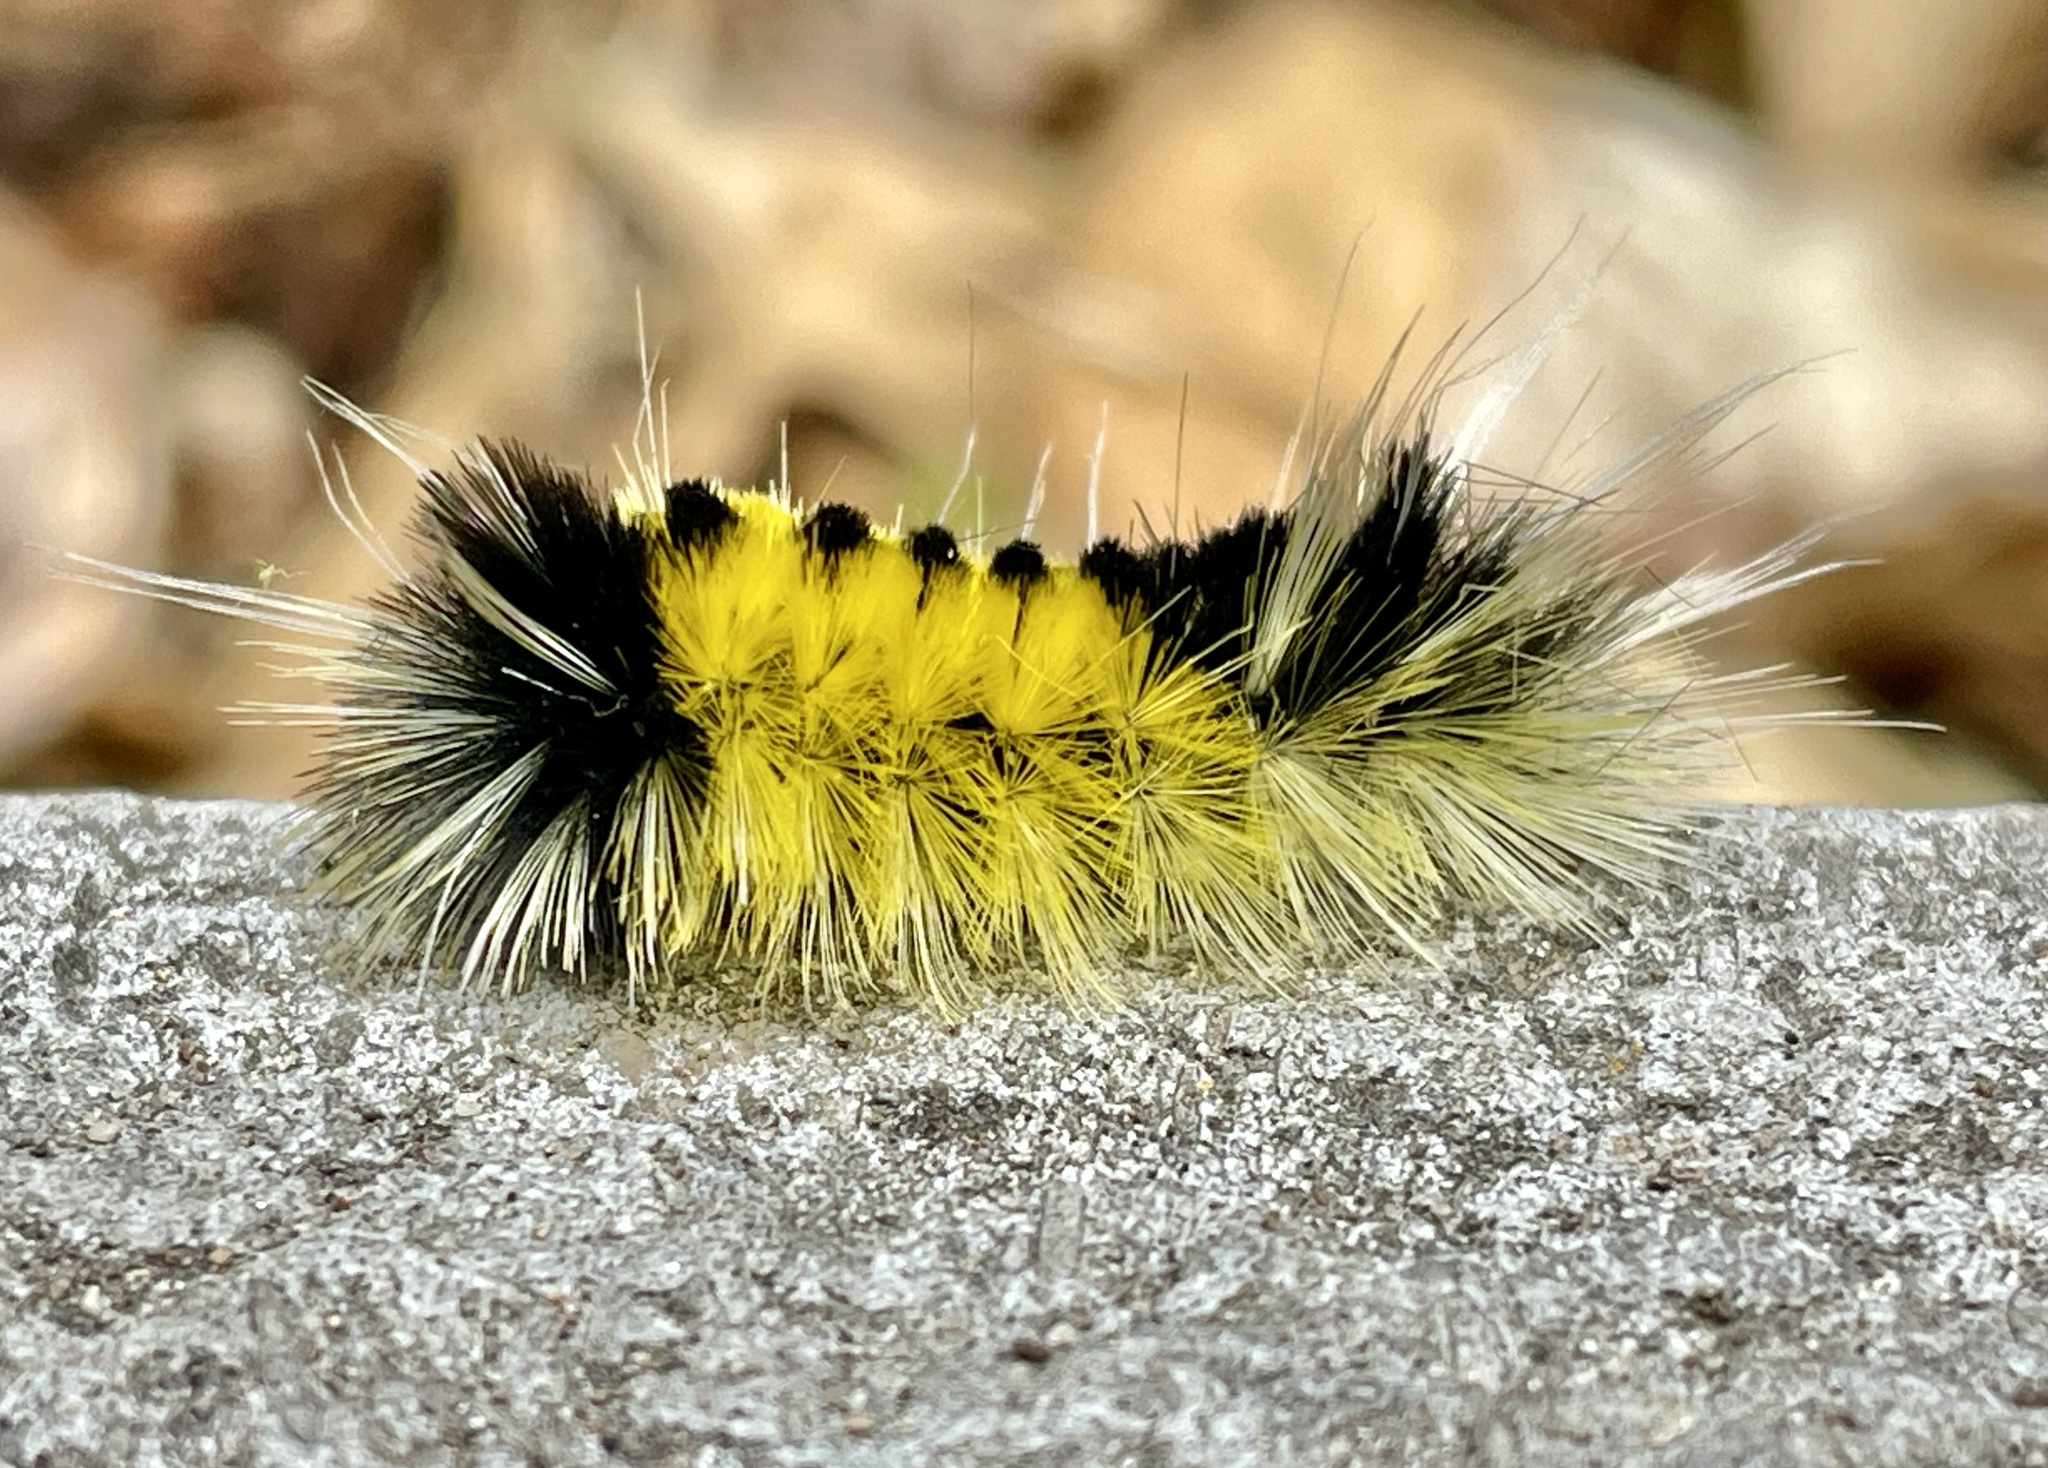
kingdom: Animalia
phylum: Arthropoda
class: Insecta
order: Lepidoptera
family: Erebidae
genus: Lophocampa
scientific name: Lophocampa maculata
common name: Spotted tussock moth
